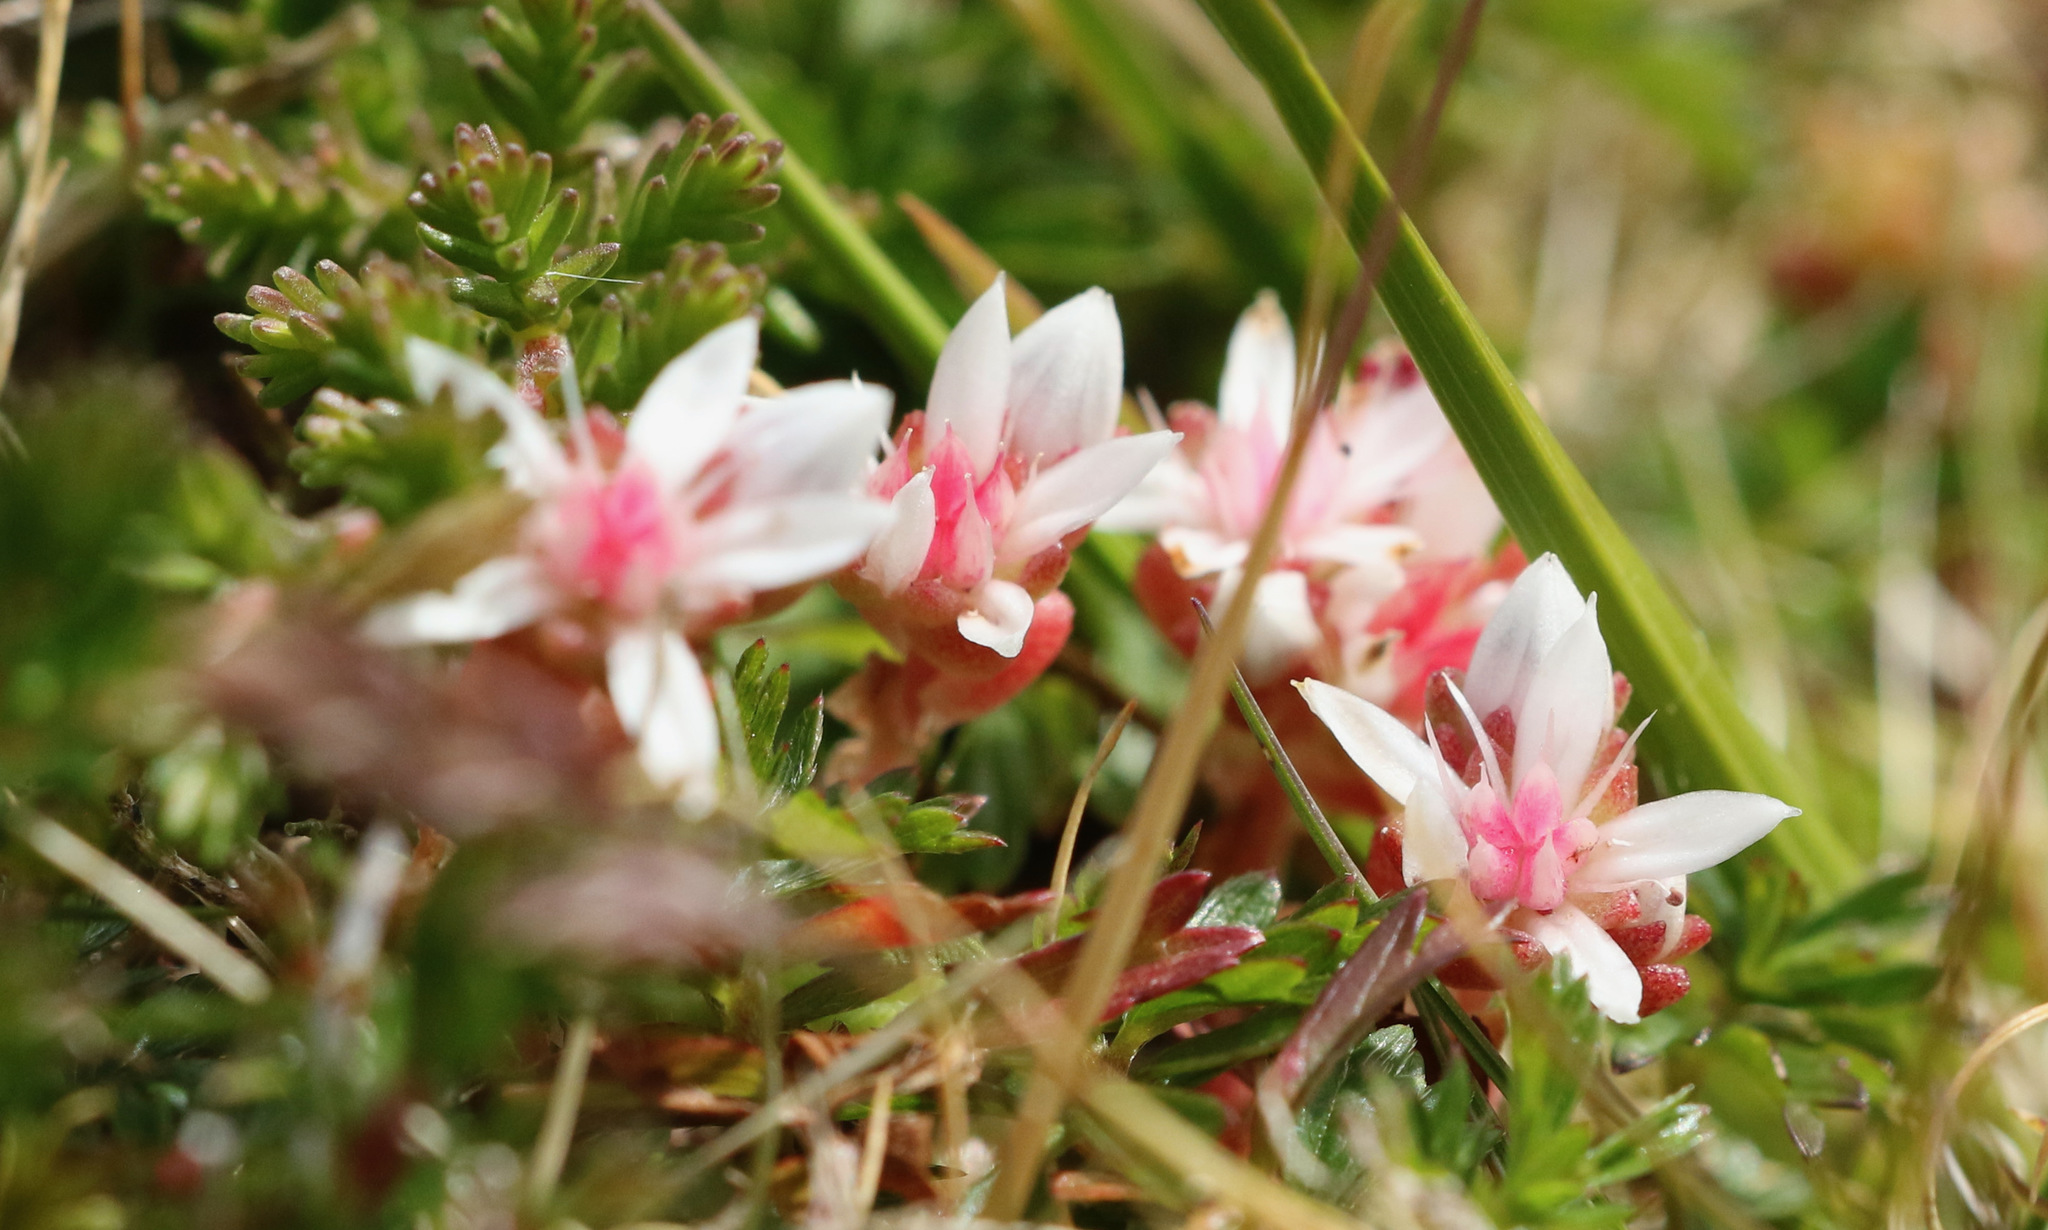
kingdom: Plantae
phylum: Tracheophyta
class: Magnoliopsida
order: Saxifragales
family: Crassulaceae
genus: Sedum
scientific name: Sedum anglicum
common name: English stonecrop
